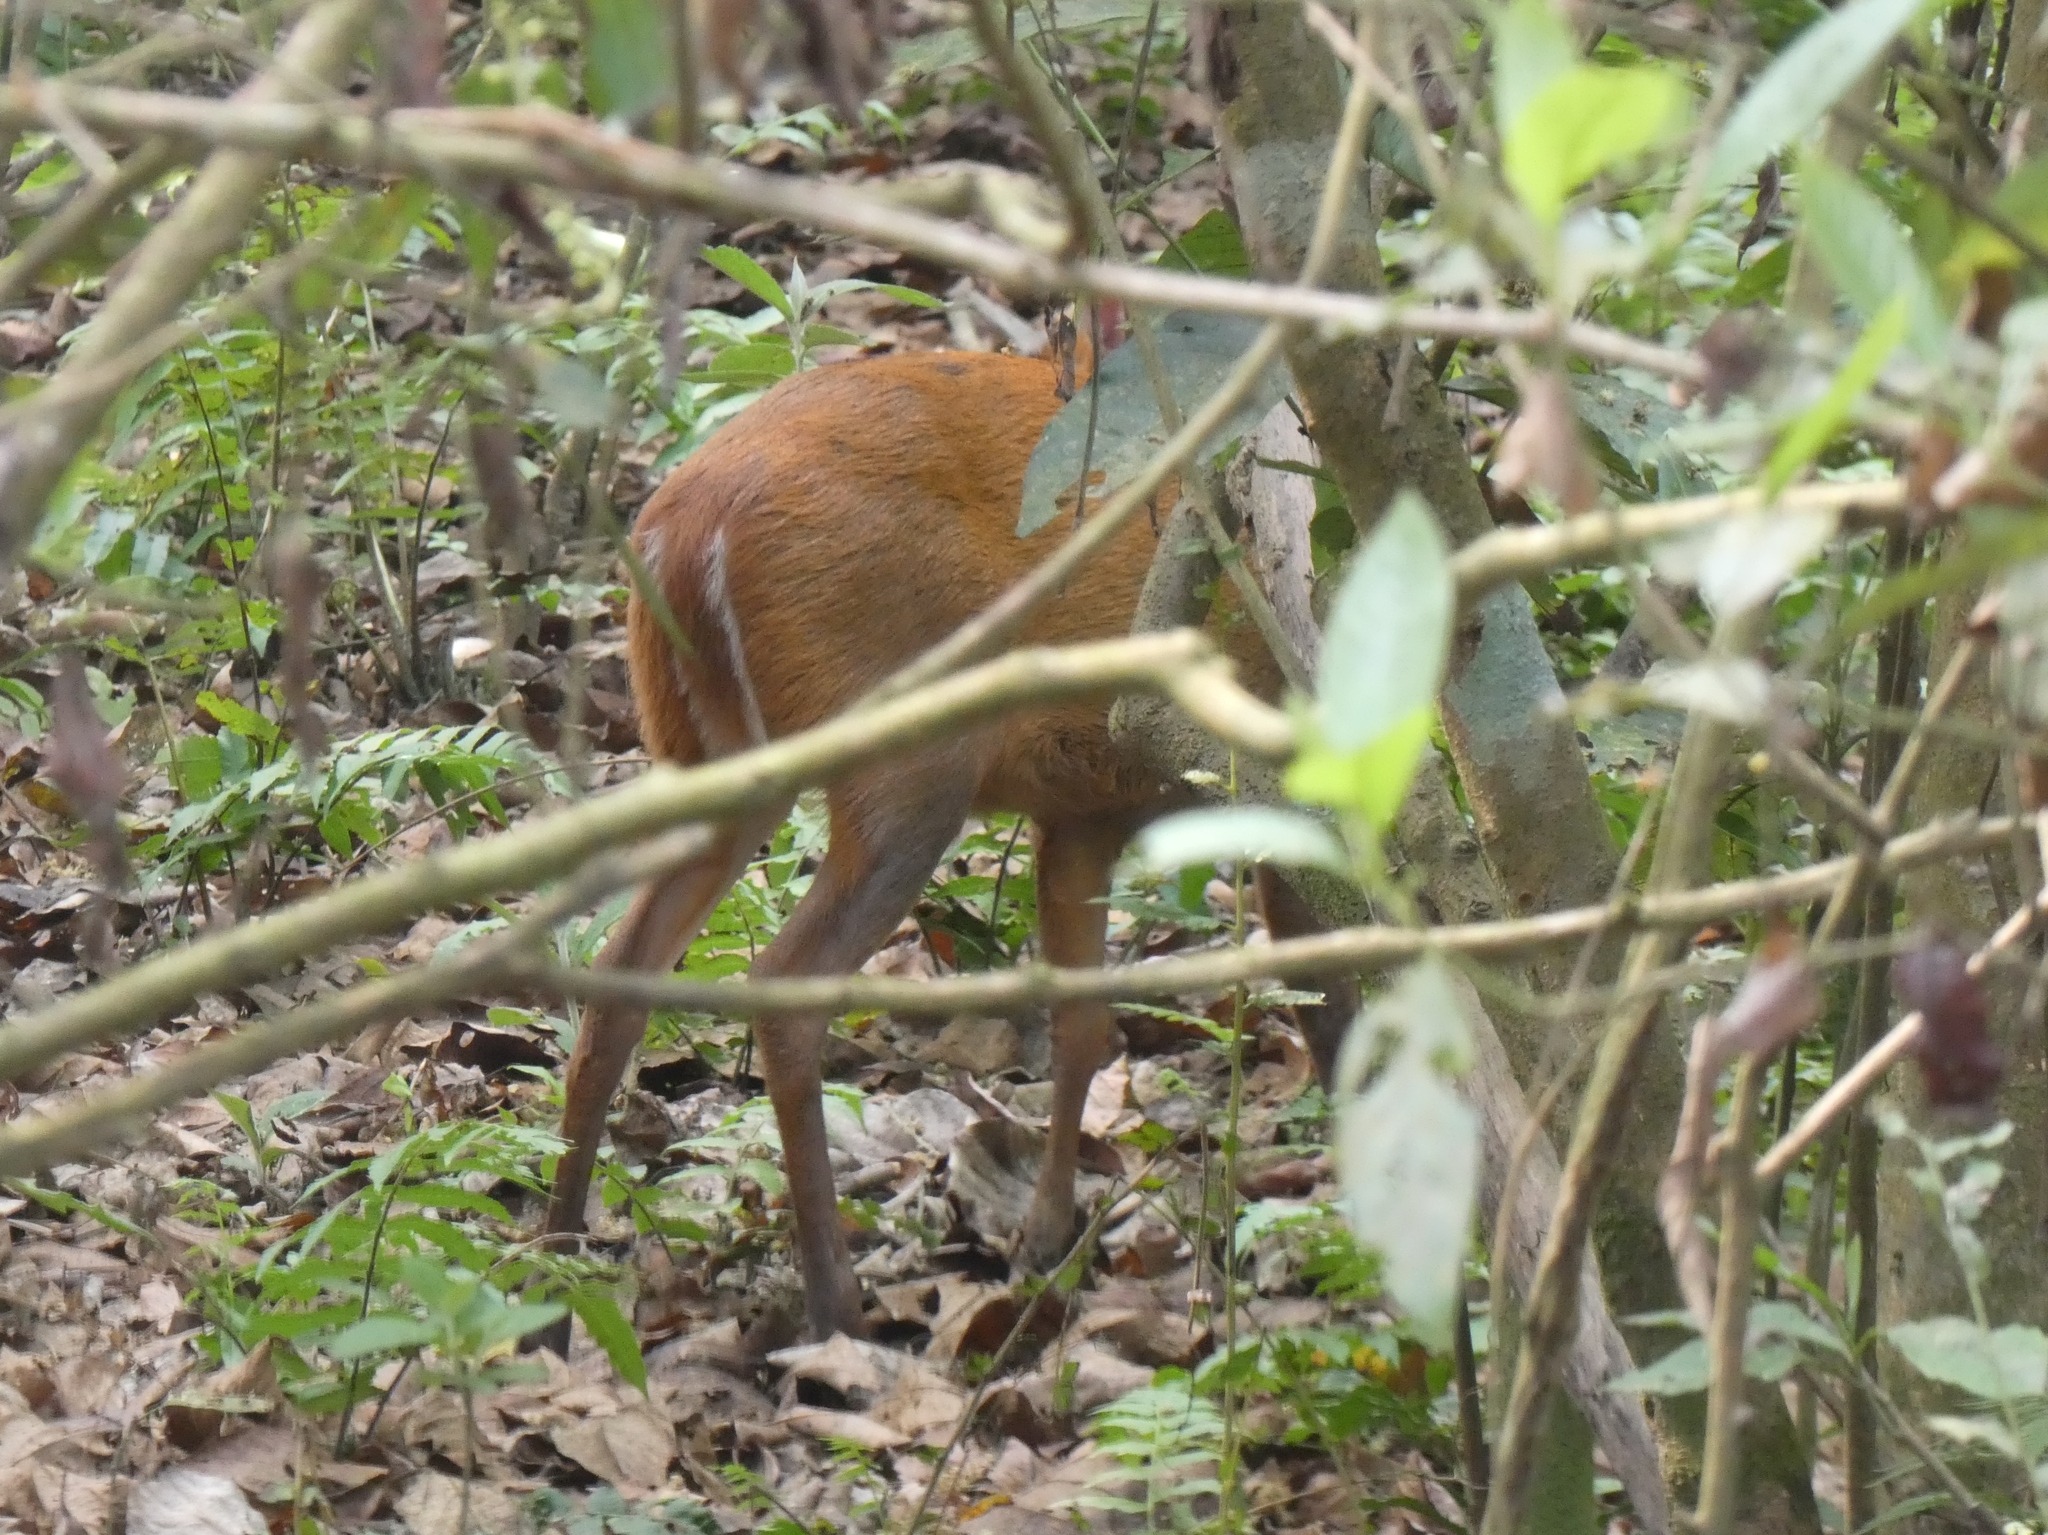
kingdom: Animalia
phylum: Chordata
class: Mammalia
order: Artiodactyla
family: Cervidae
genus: Muntiacus
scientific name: Muntiacus muntjak
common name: Indian muntjac
